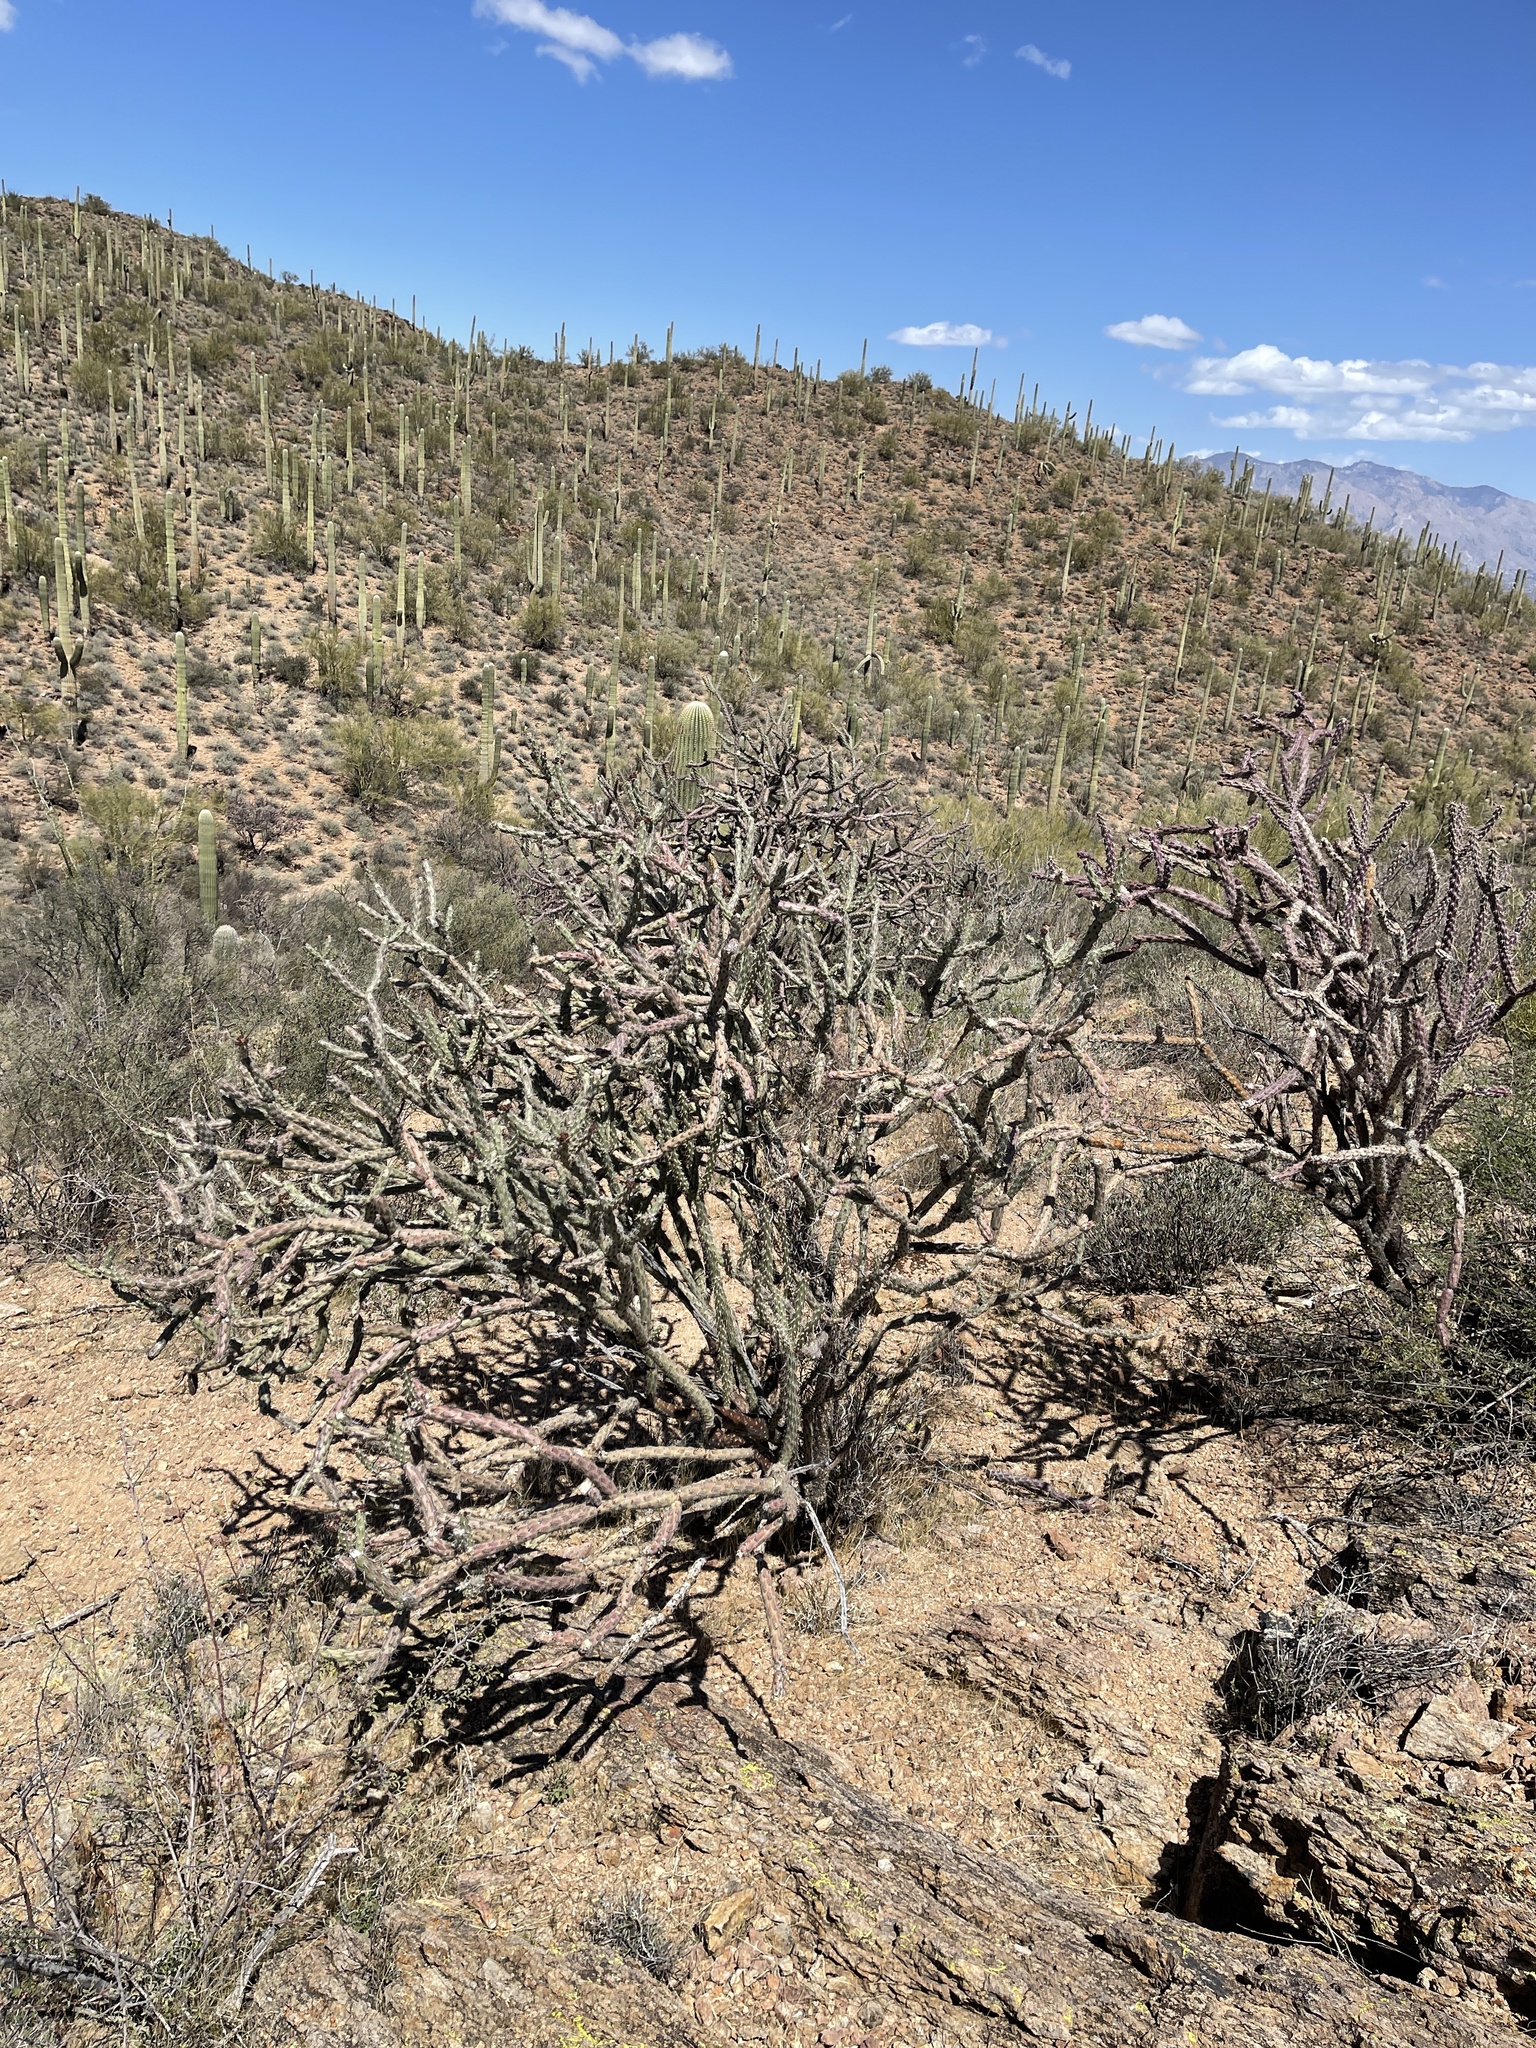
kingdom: Plantae
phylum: Tracheophyta
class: Magnoliopsida
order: Caryophyllales
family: Cactaceae
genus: Cylindropuntia
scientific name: Cylindropuntia thurberi
